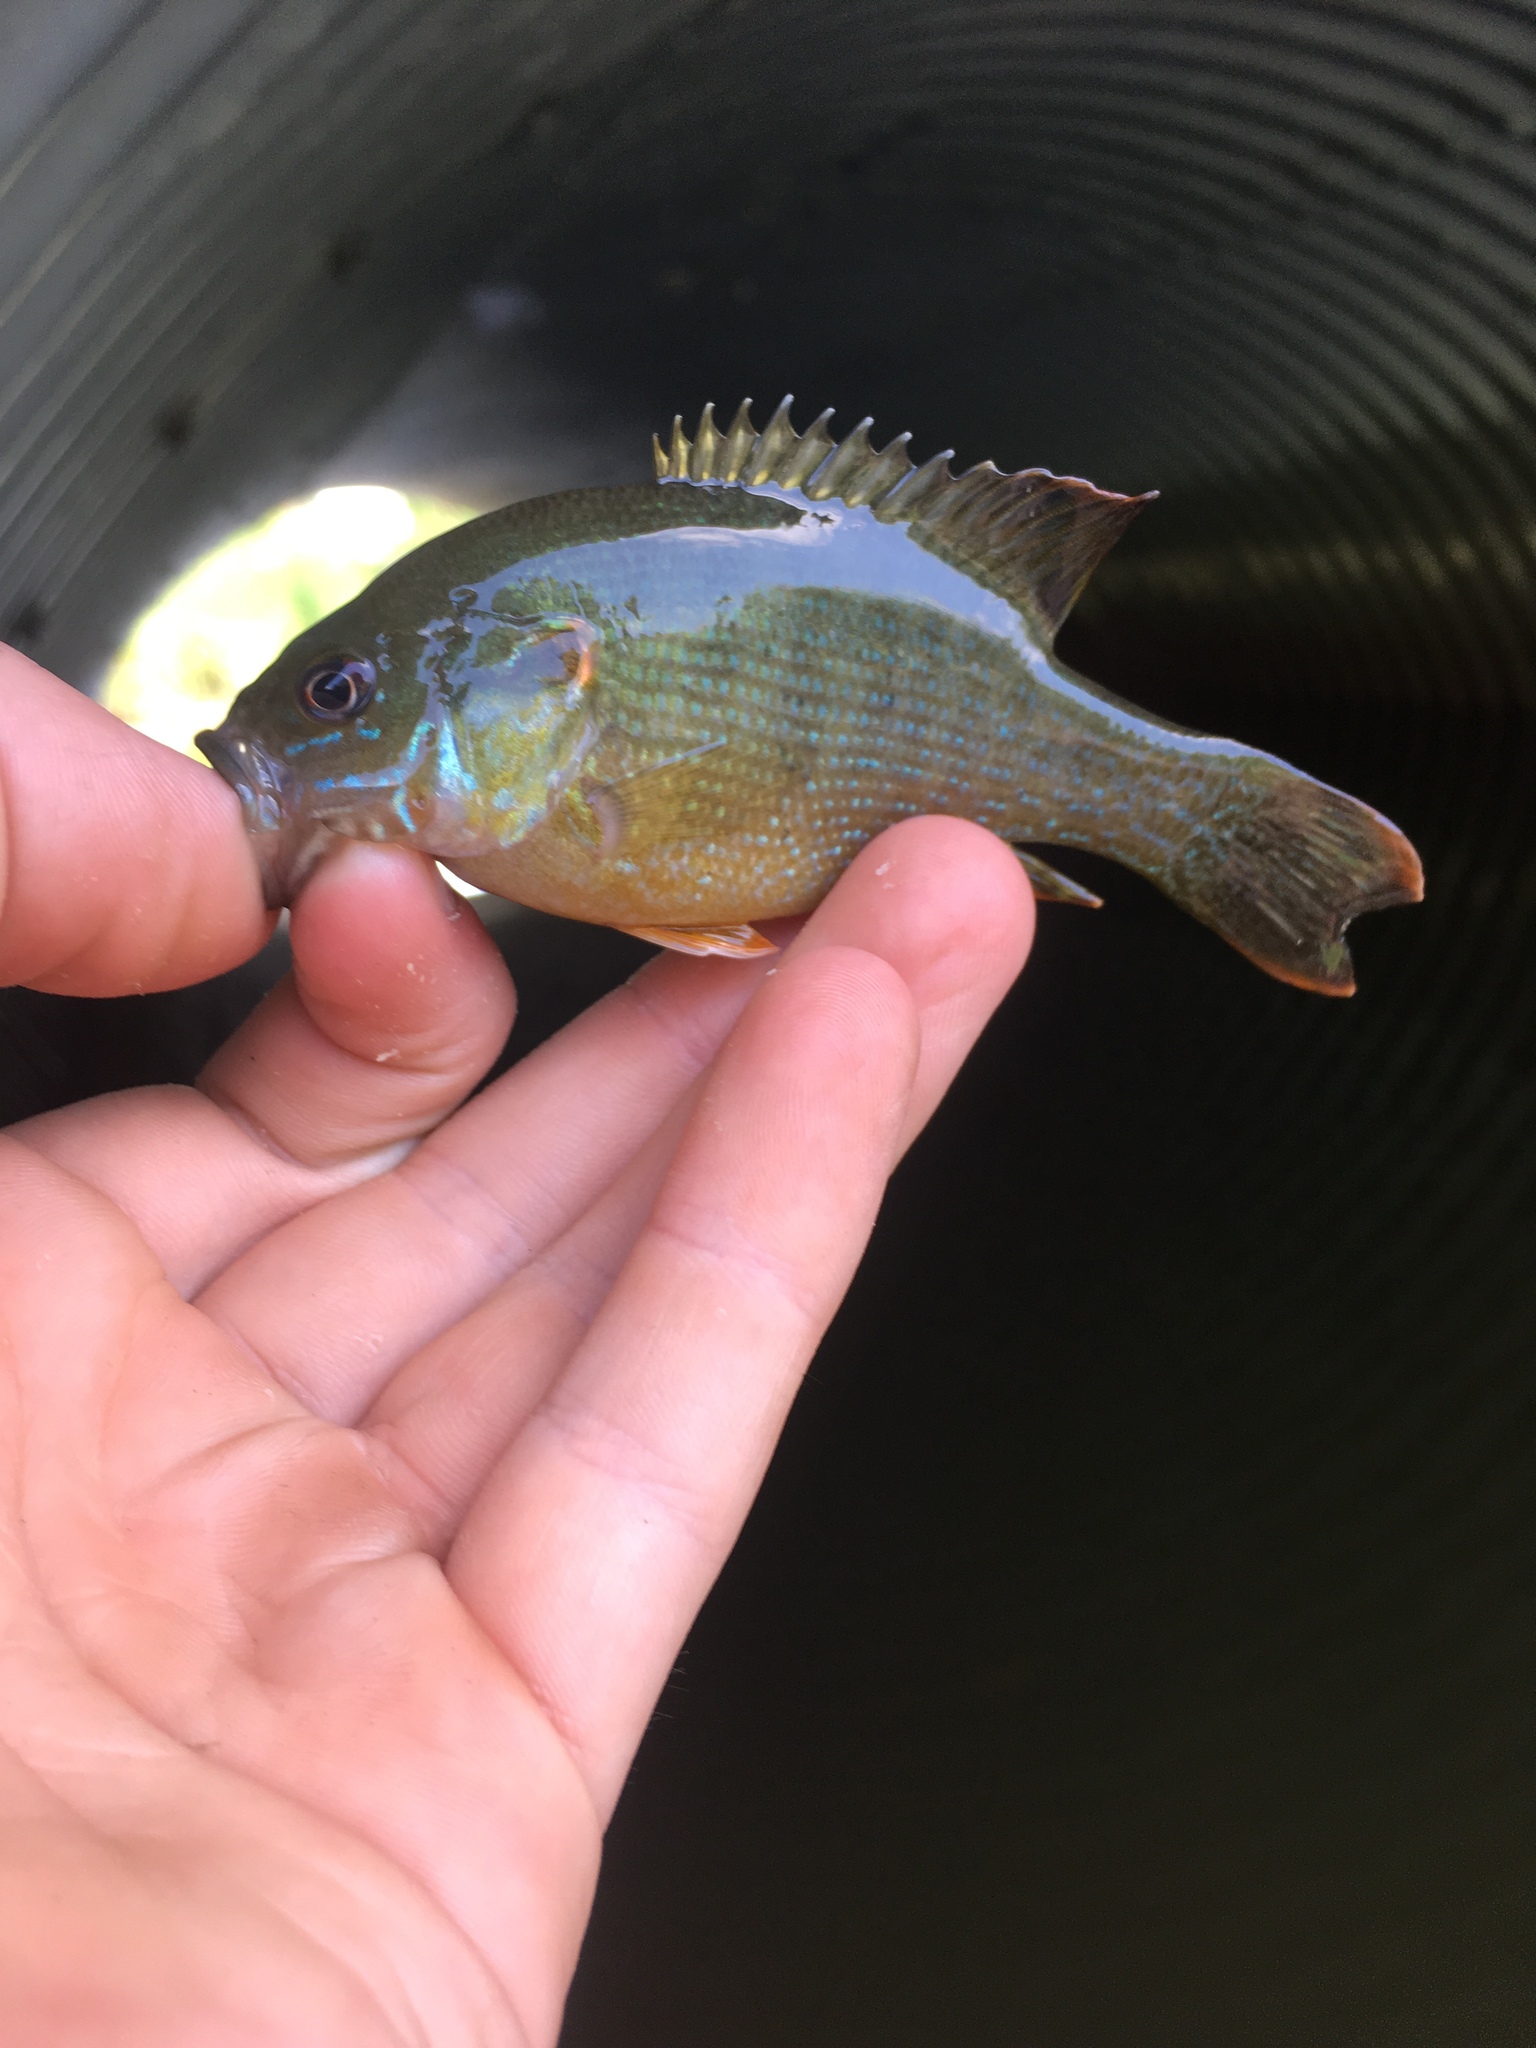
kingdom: Animalia
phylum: Chordata
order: Perciformes
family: Centrarchidae
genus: Lepomis
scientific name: Lepomis cyanellus
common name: Green sunfish
